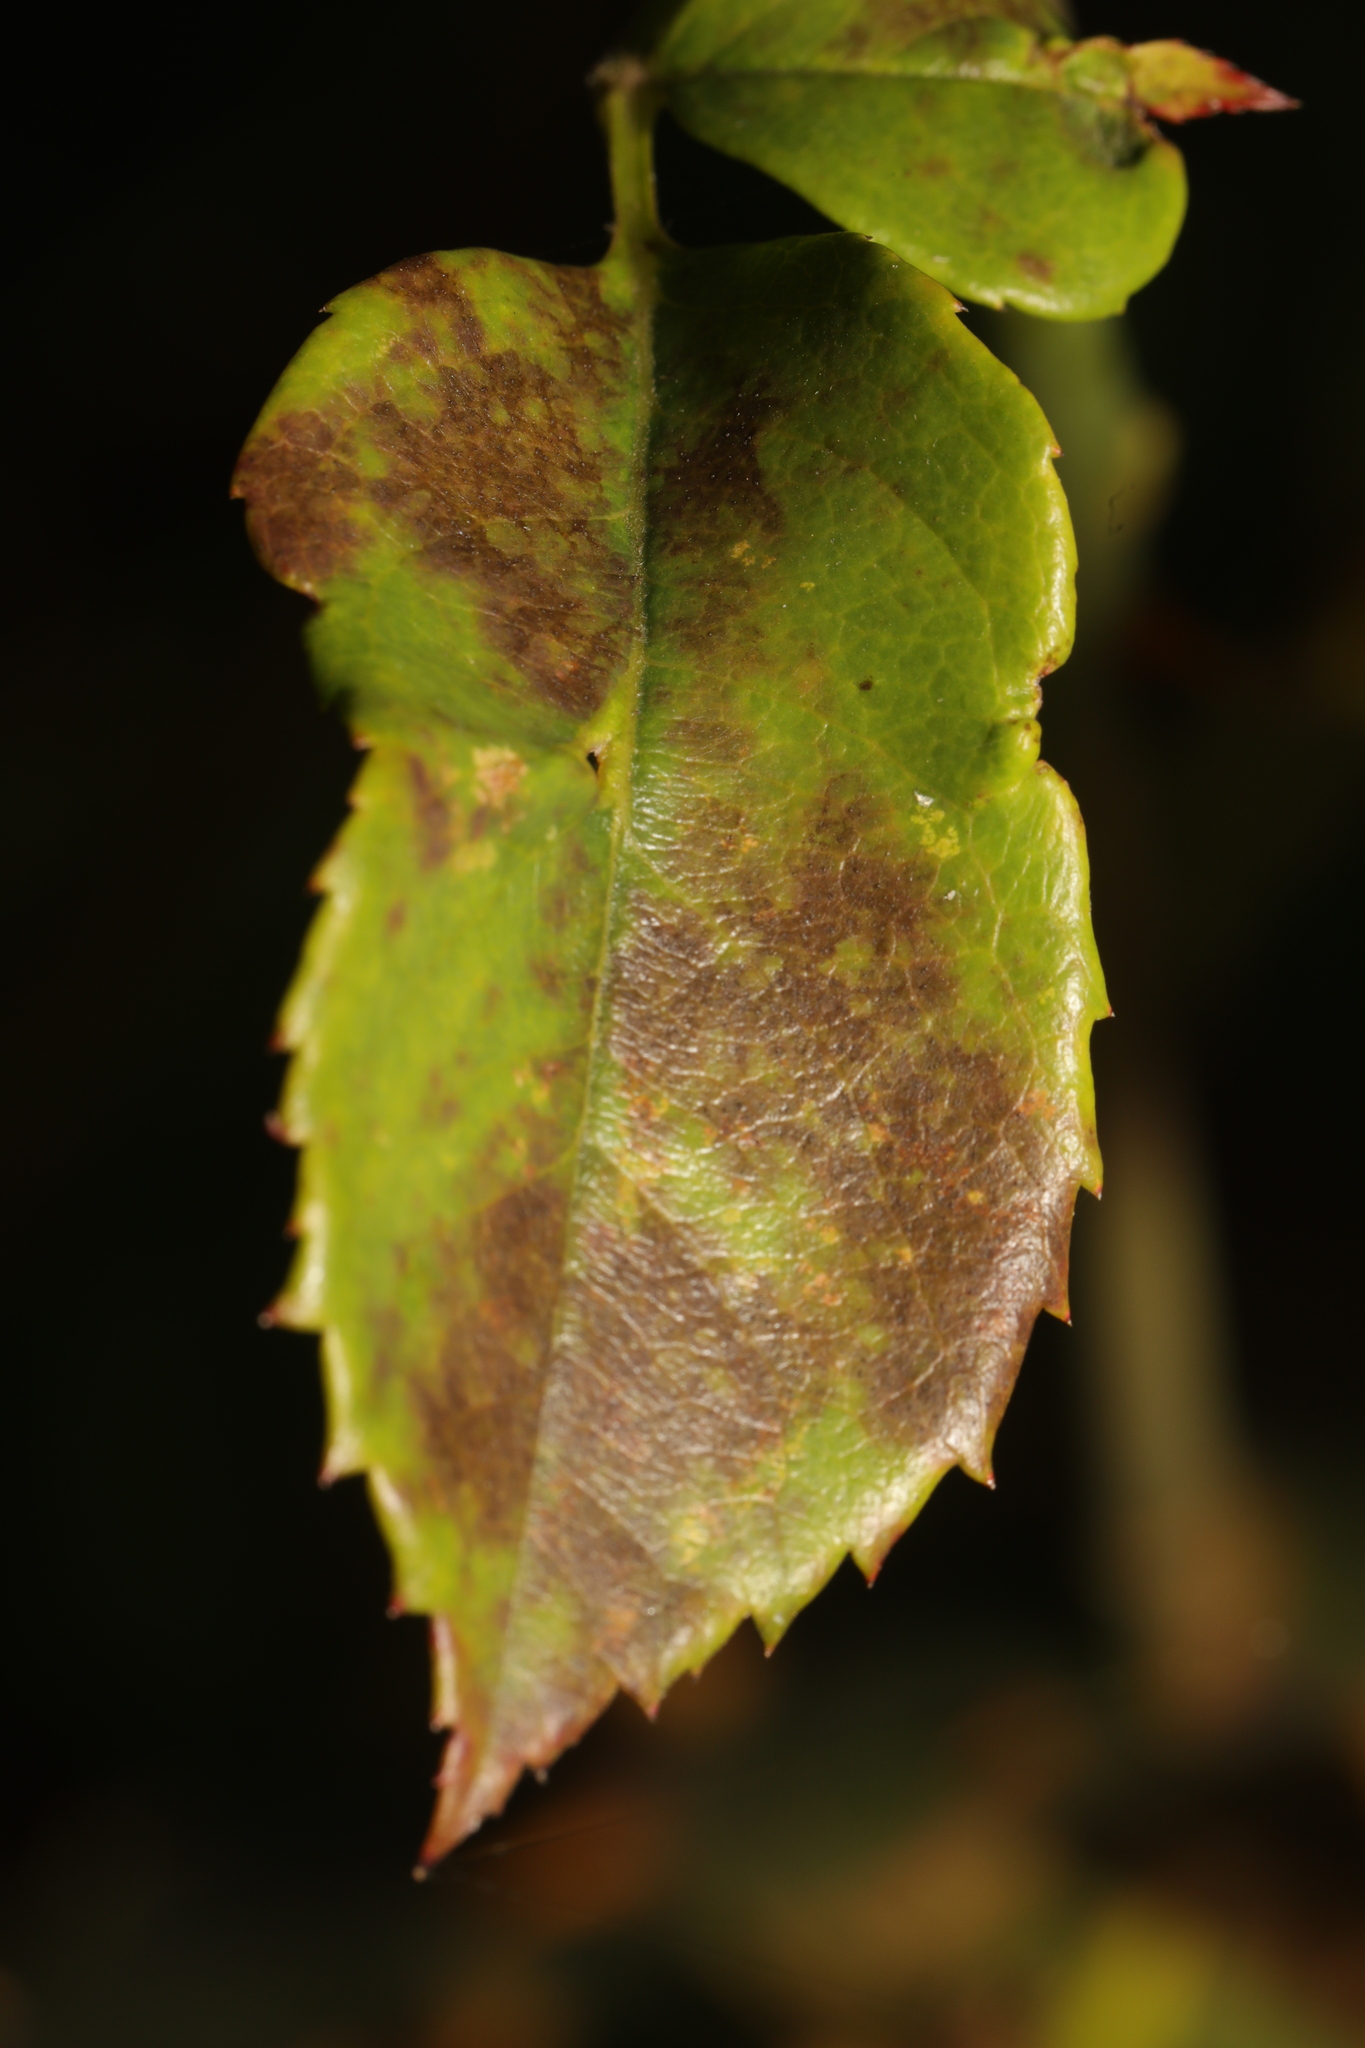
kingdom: Fungi
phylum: Ascomycota
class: Leotiomycetes
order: Helotiales
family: Drepanopezizaceae
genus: Diplocarpon
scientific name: Diplocarpon rosae
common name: Rose black-spot
